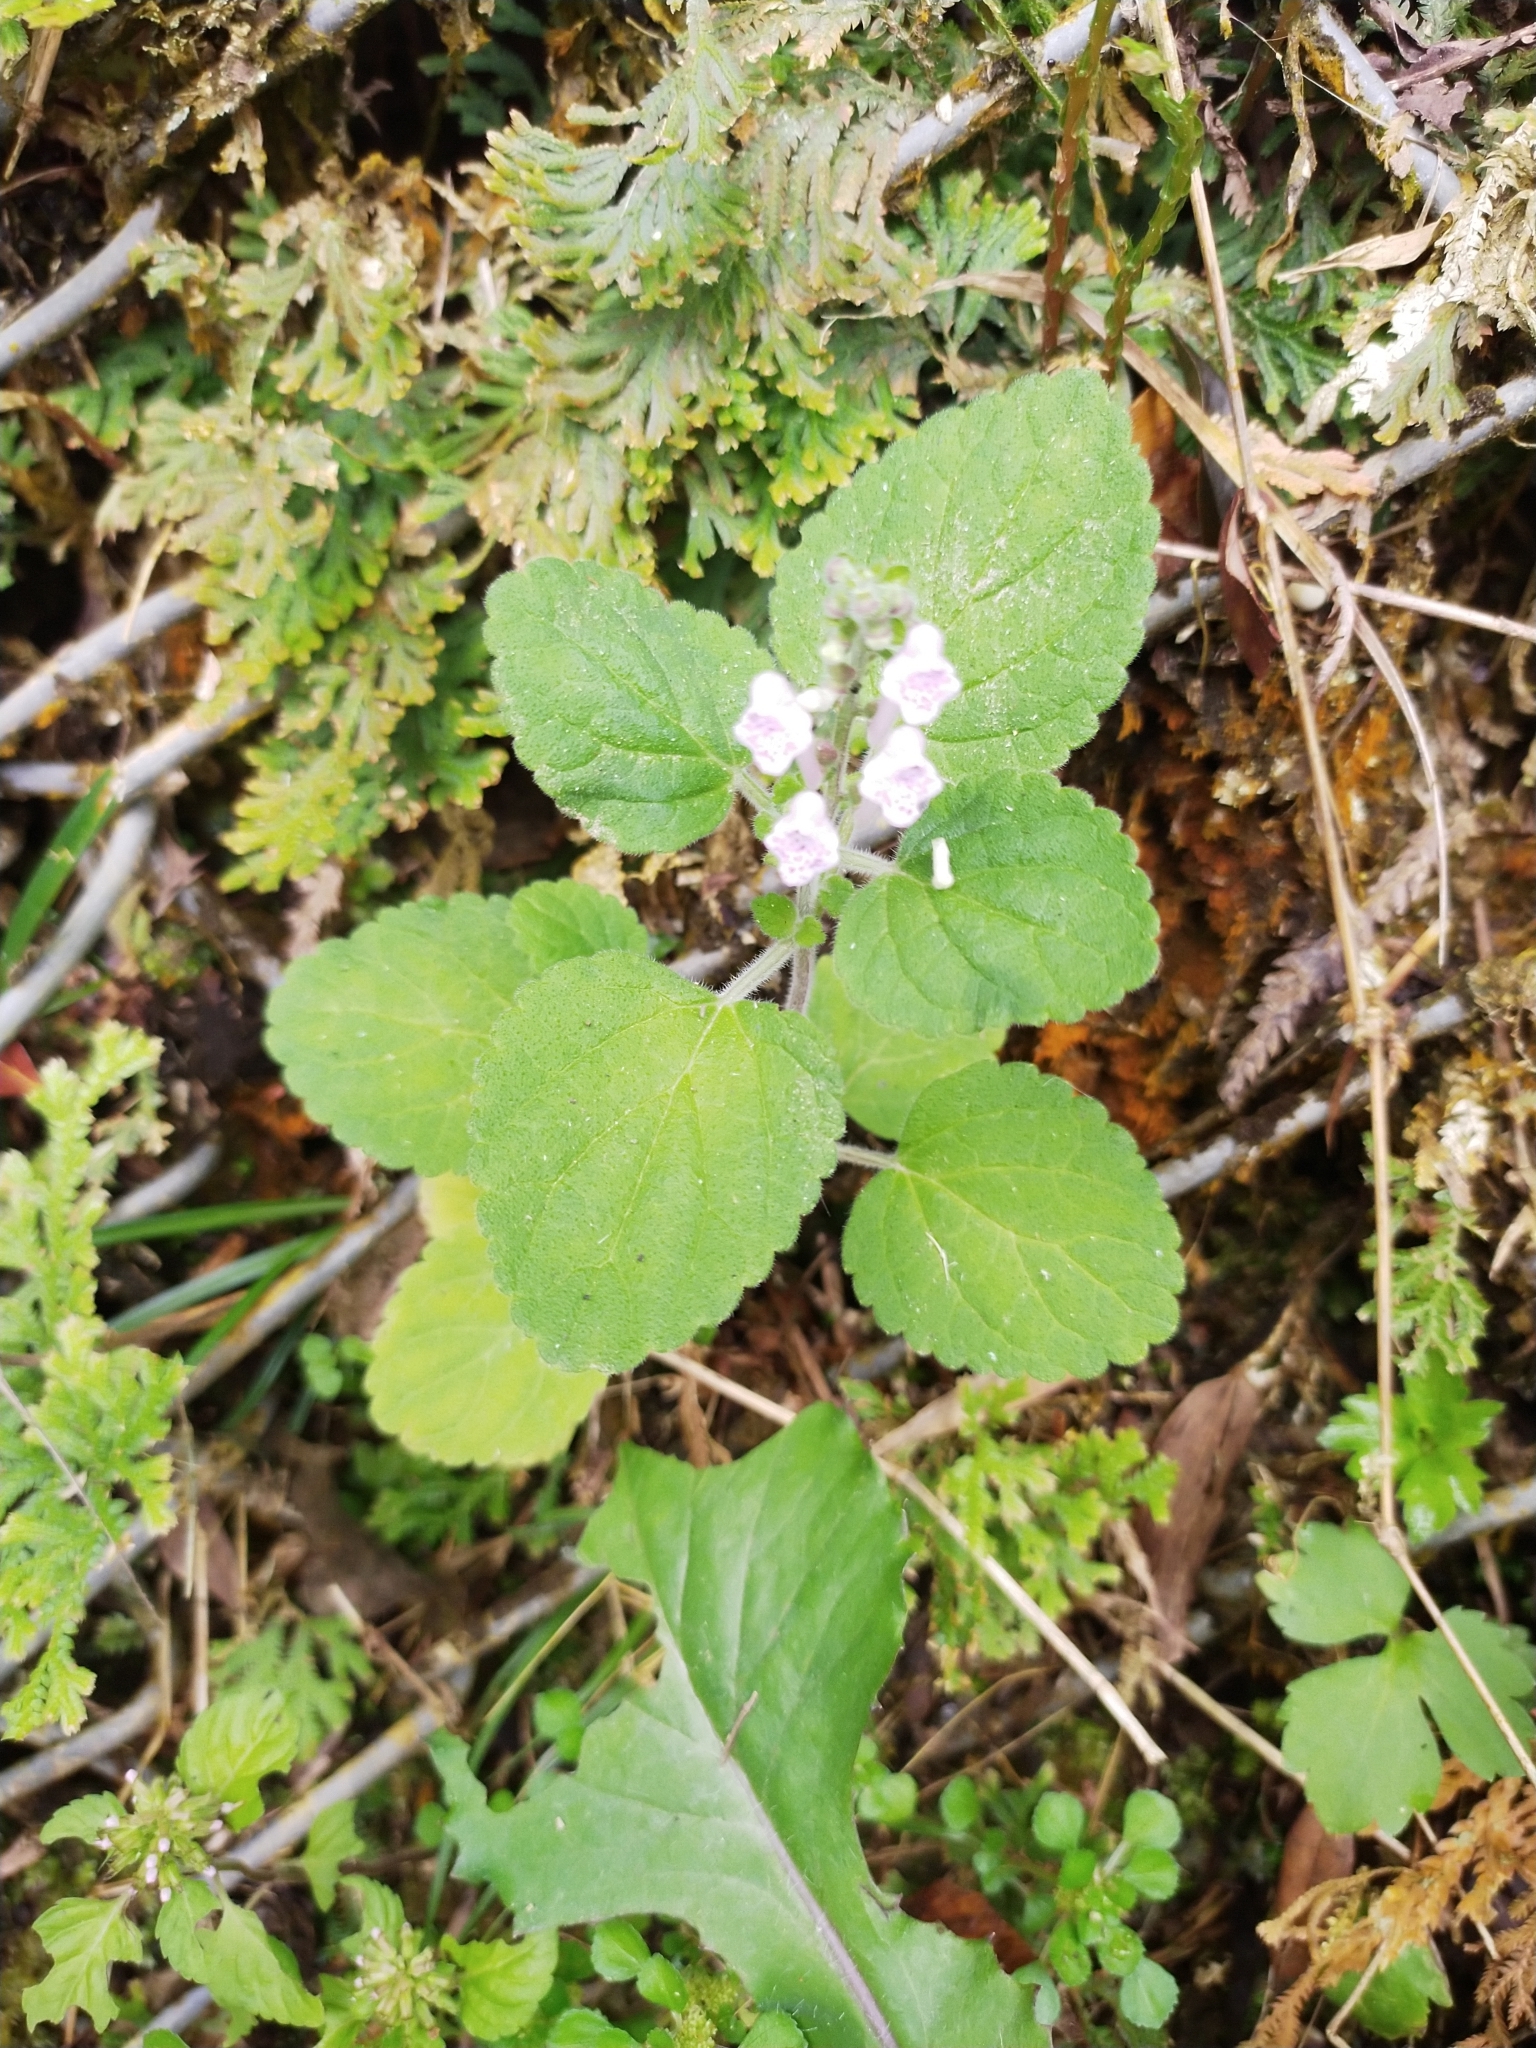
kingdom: Plantae
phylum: Tracheophyta
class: Magnoliopsida
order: Lamiales
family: Lamiaceae
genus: Scutellaria
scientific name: Scutellaria indica
